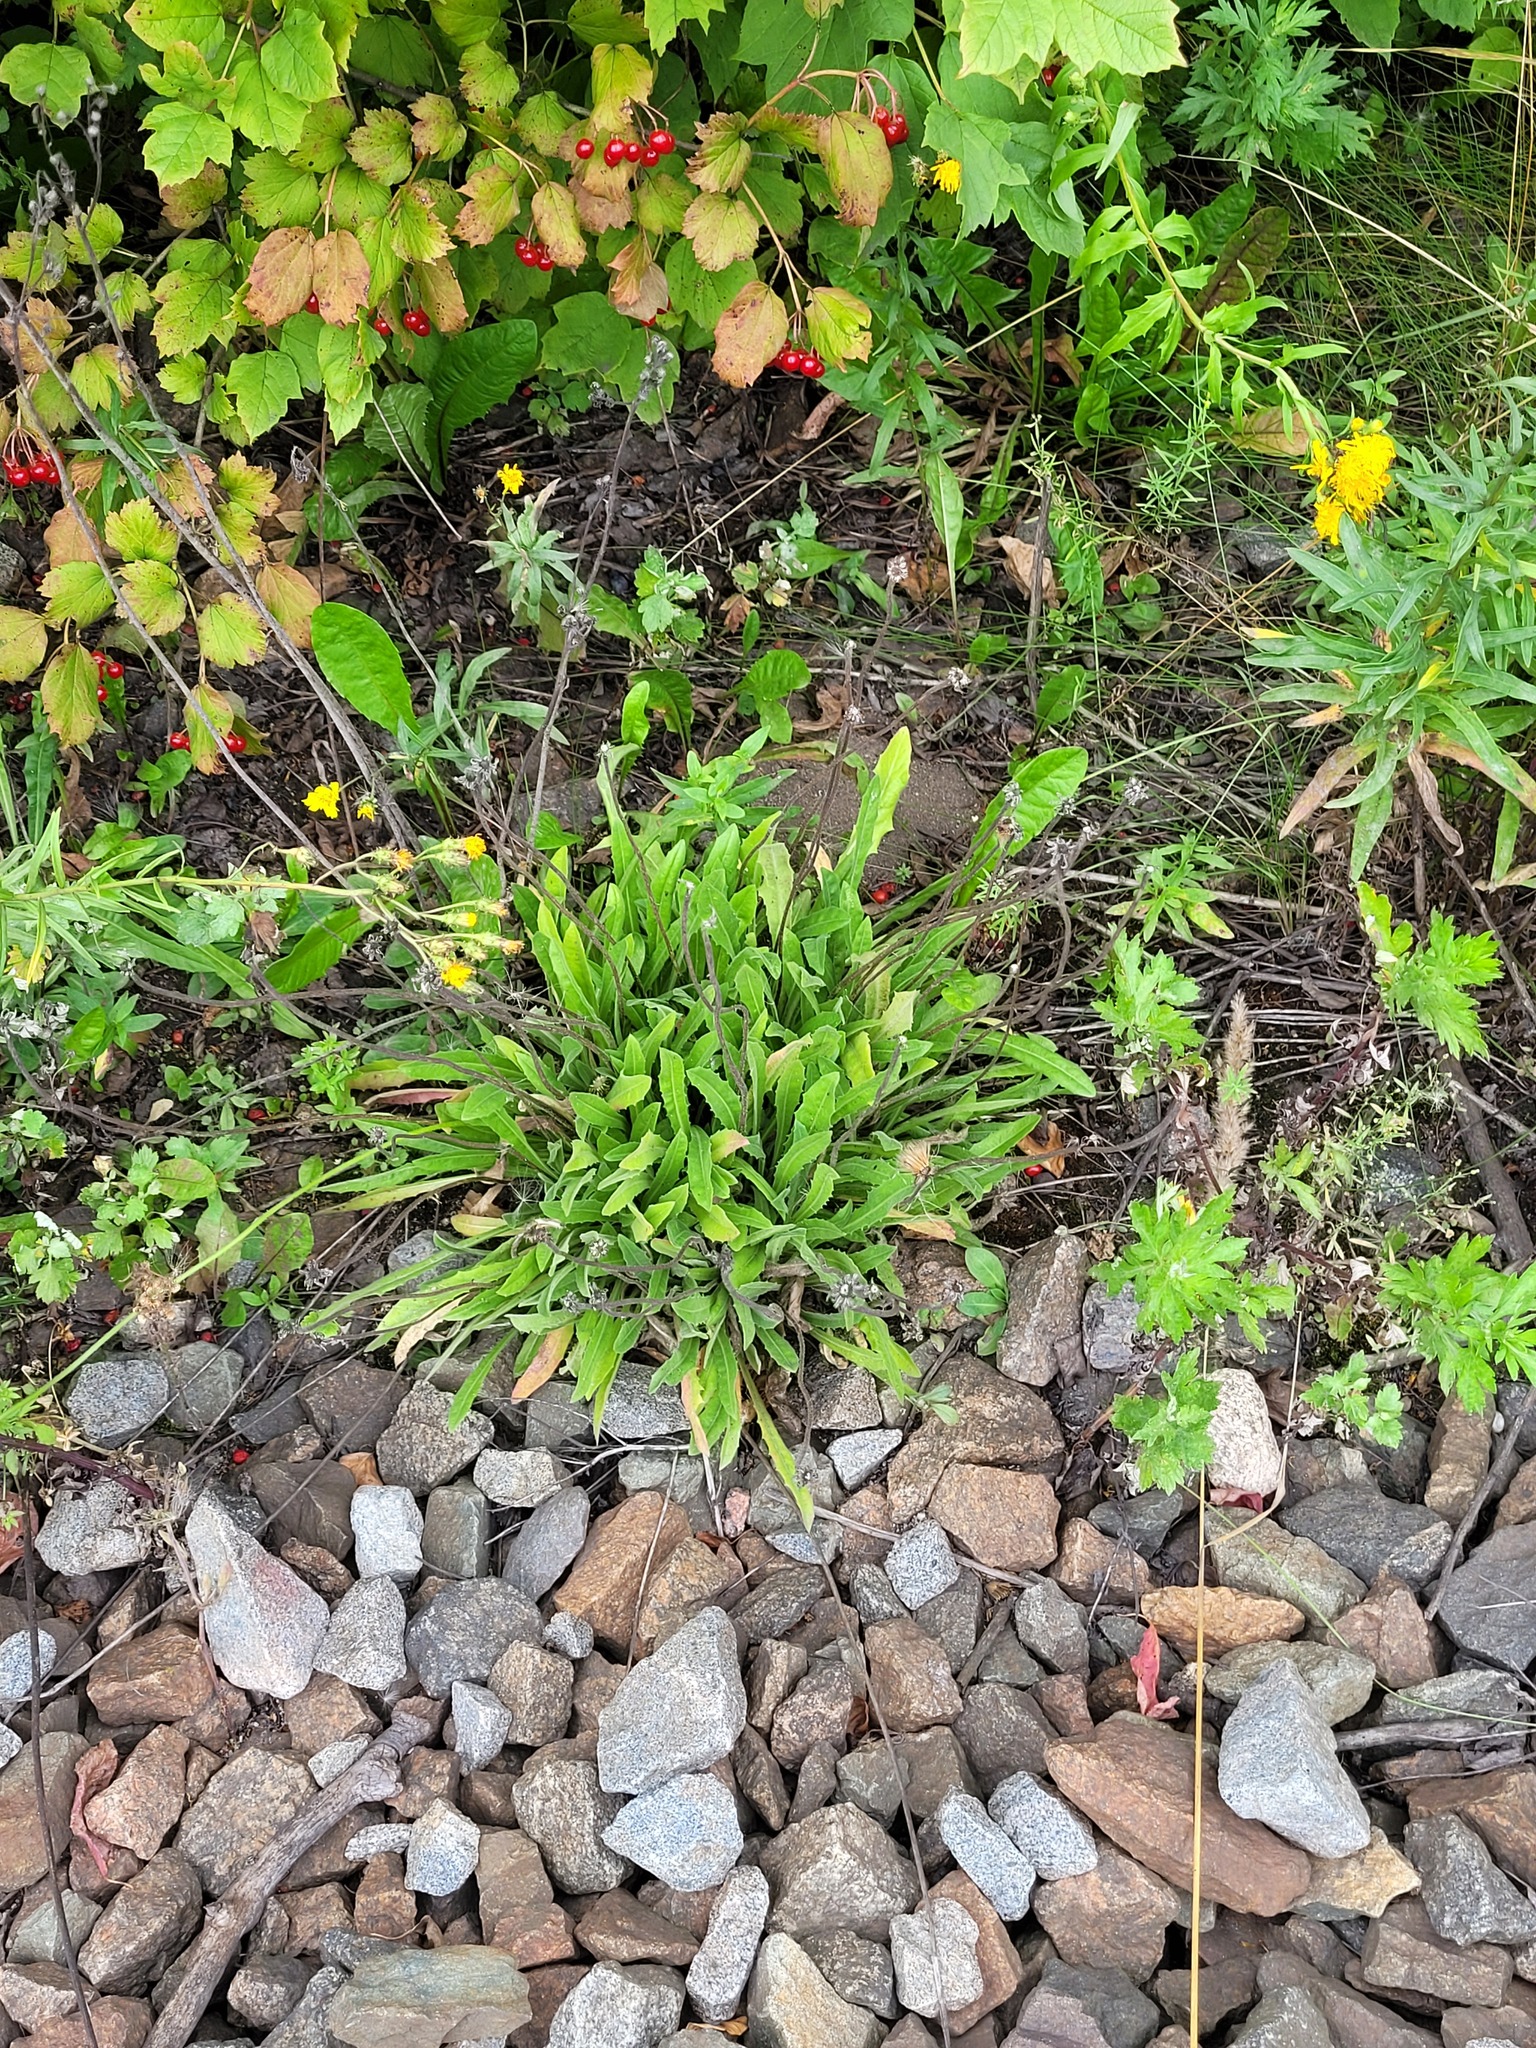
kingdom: Plantae
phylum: Tracheophyta
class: Magnoliopsida
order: Asterales
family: Asteraceae
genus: Leontodon
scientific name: Leontodon hispidus
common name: Rough hawkbit
